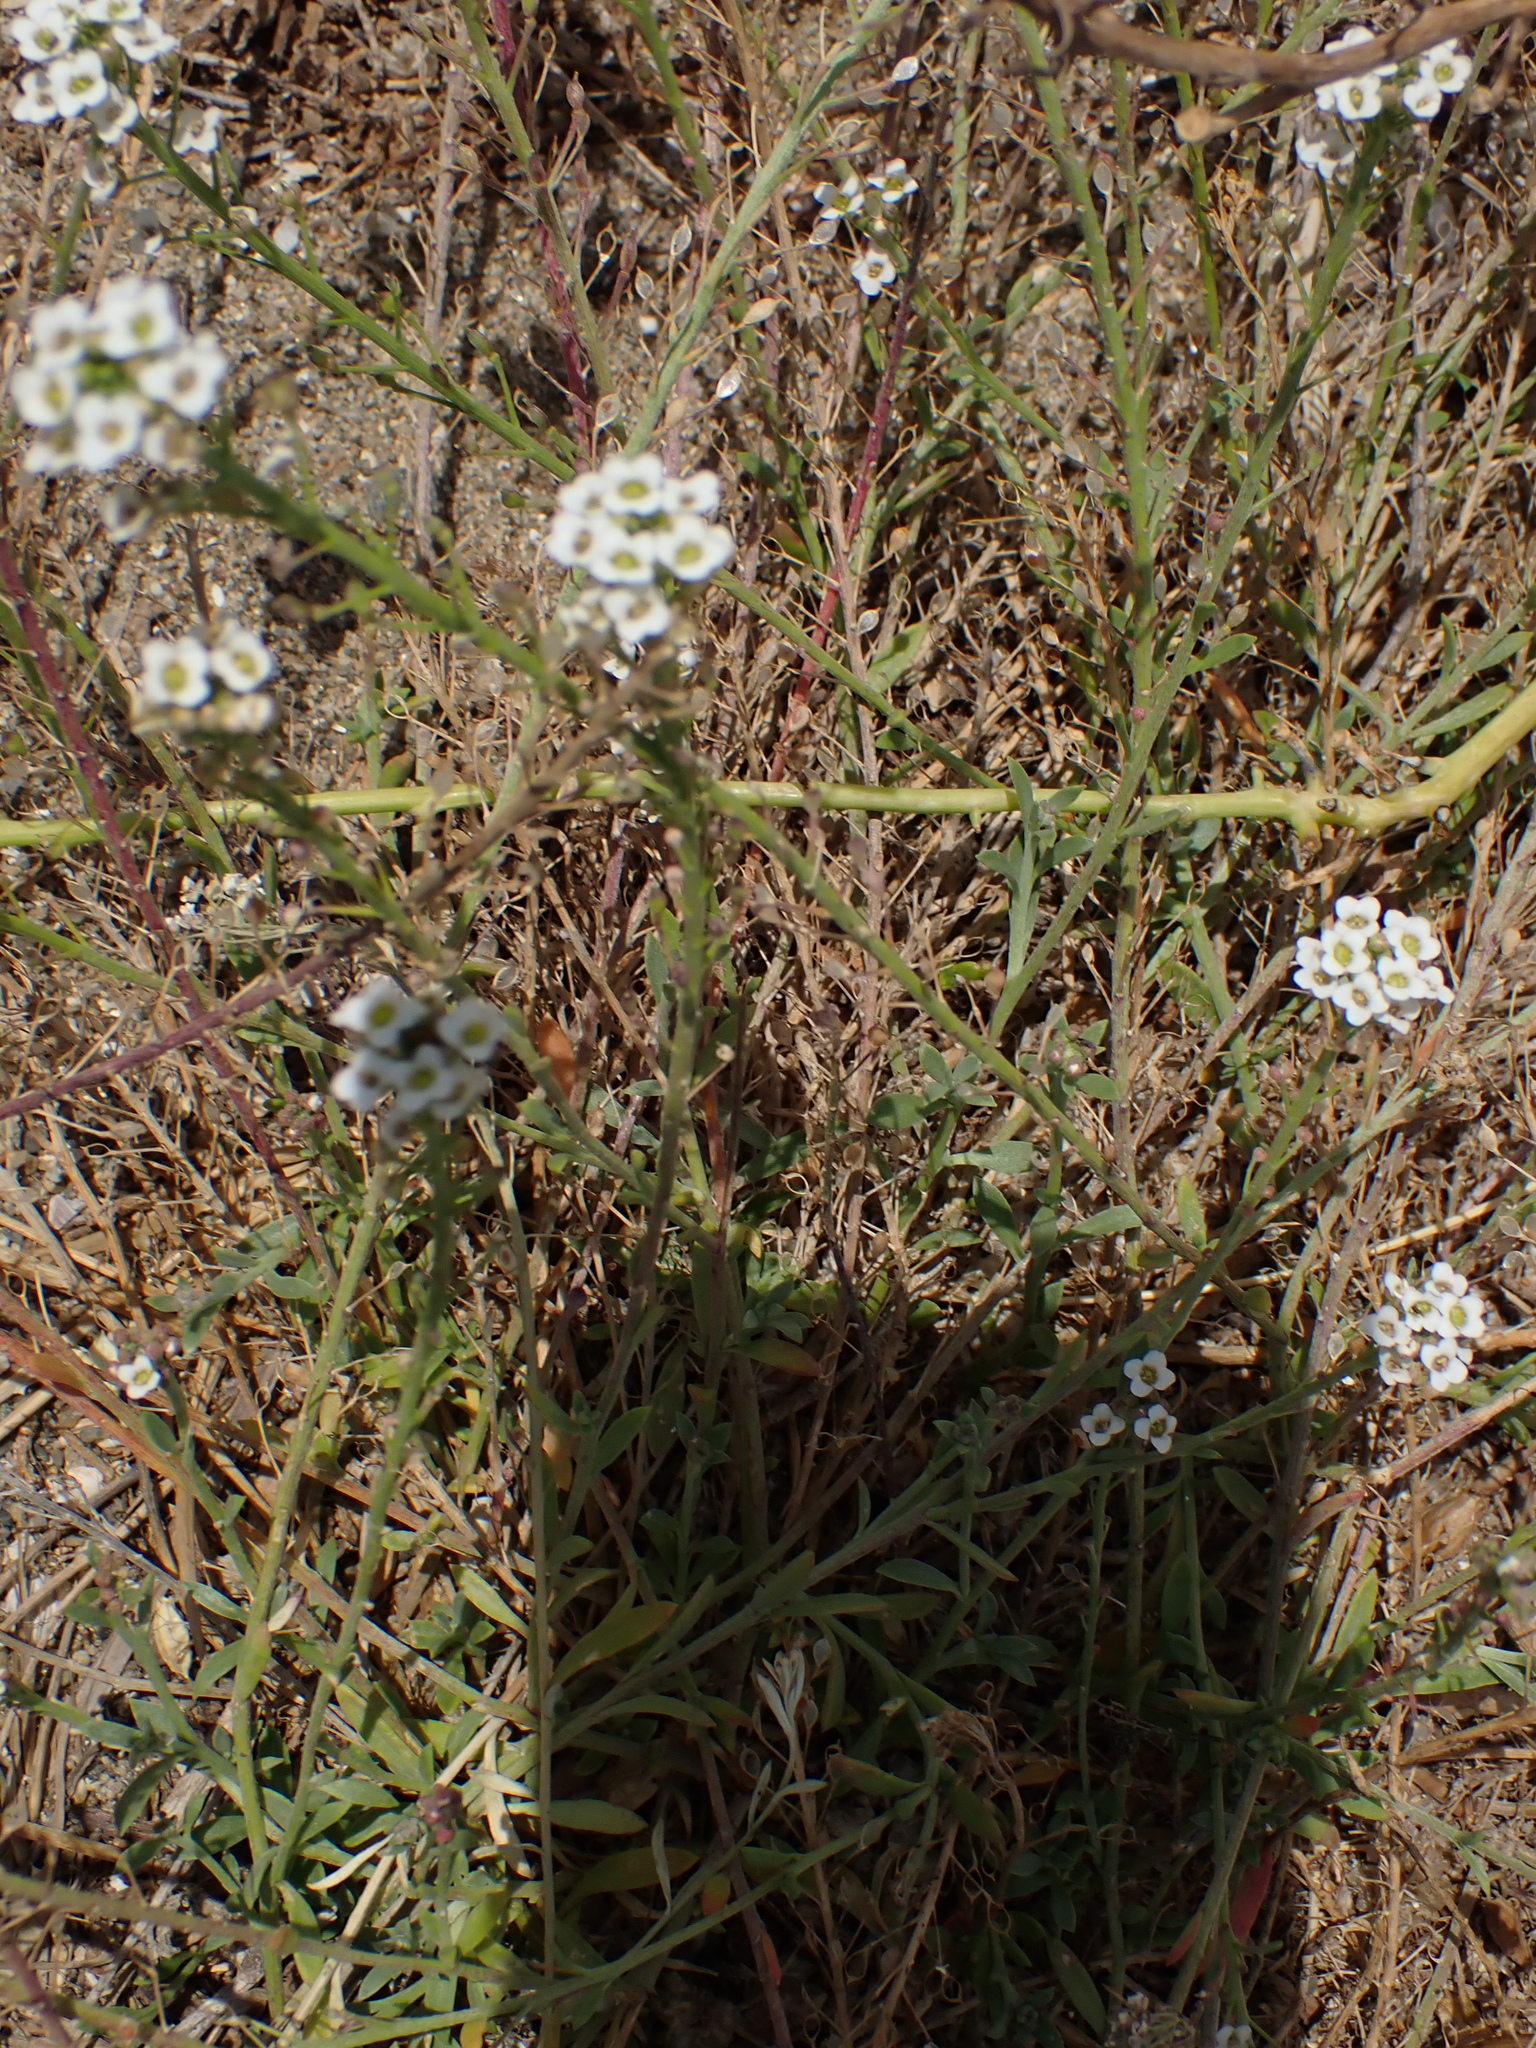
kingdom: Plantae
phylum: Tracheophyta
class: Magnoliopsida
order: Brassicales
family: Brassicaceae
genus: Lobularia
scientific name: Lobularia maritima
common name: Sweet alison
